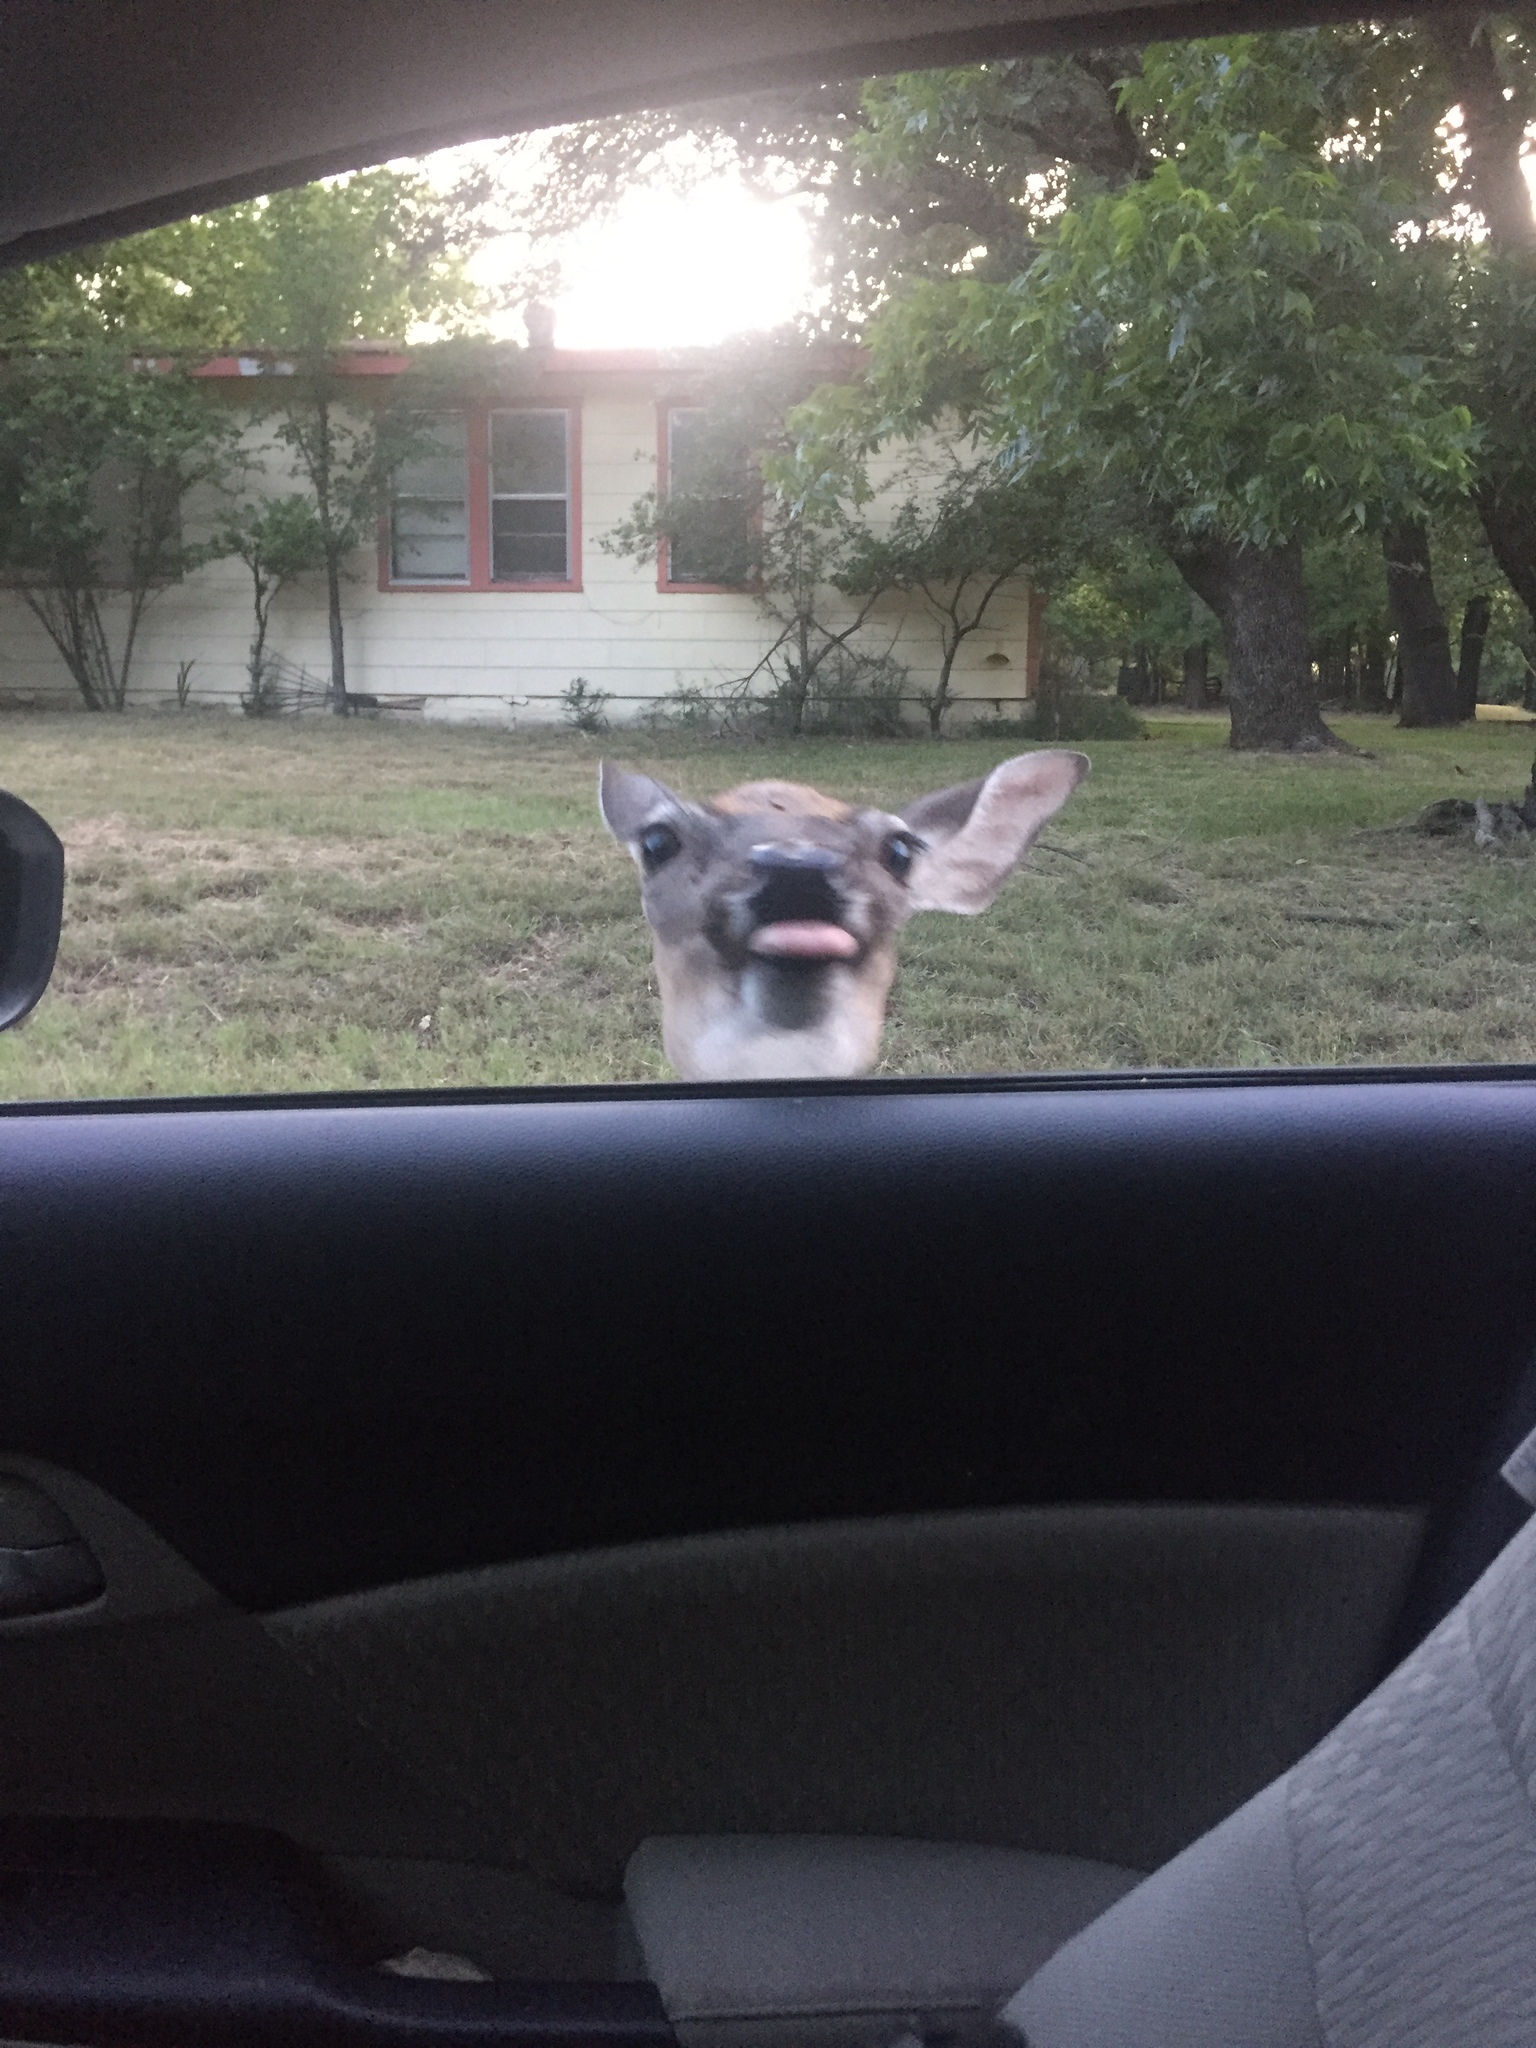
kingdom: Animalia
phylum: Chordata
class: Mammalia
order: Artiodactyla
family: Cervidae
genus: Odocoileus
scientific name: Odocoileus virginianus
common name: White-tailed deer
